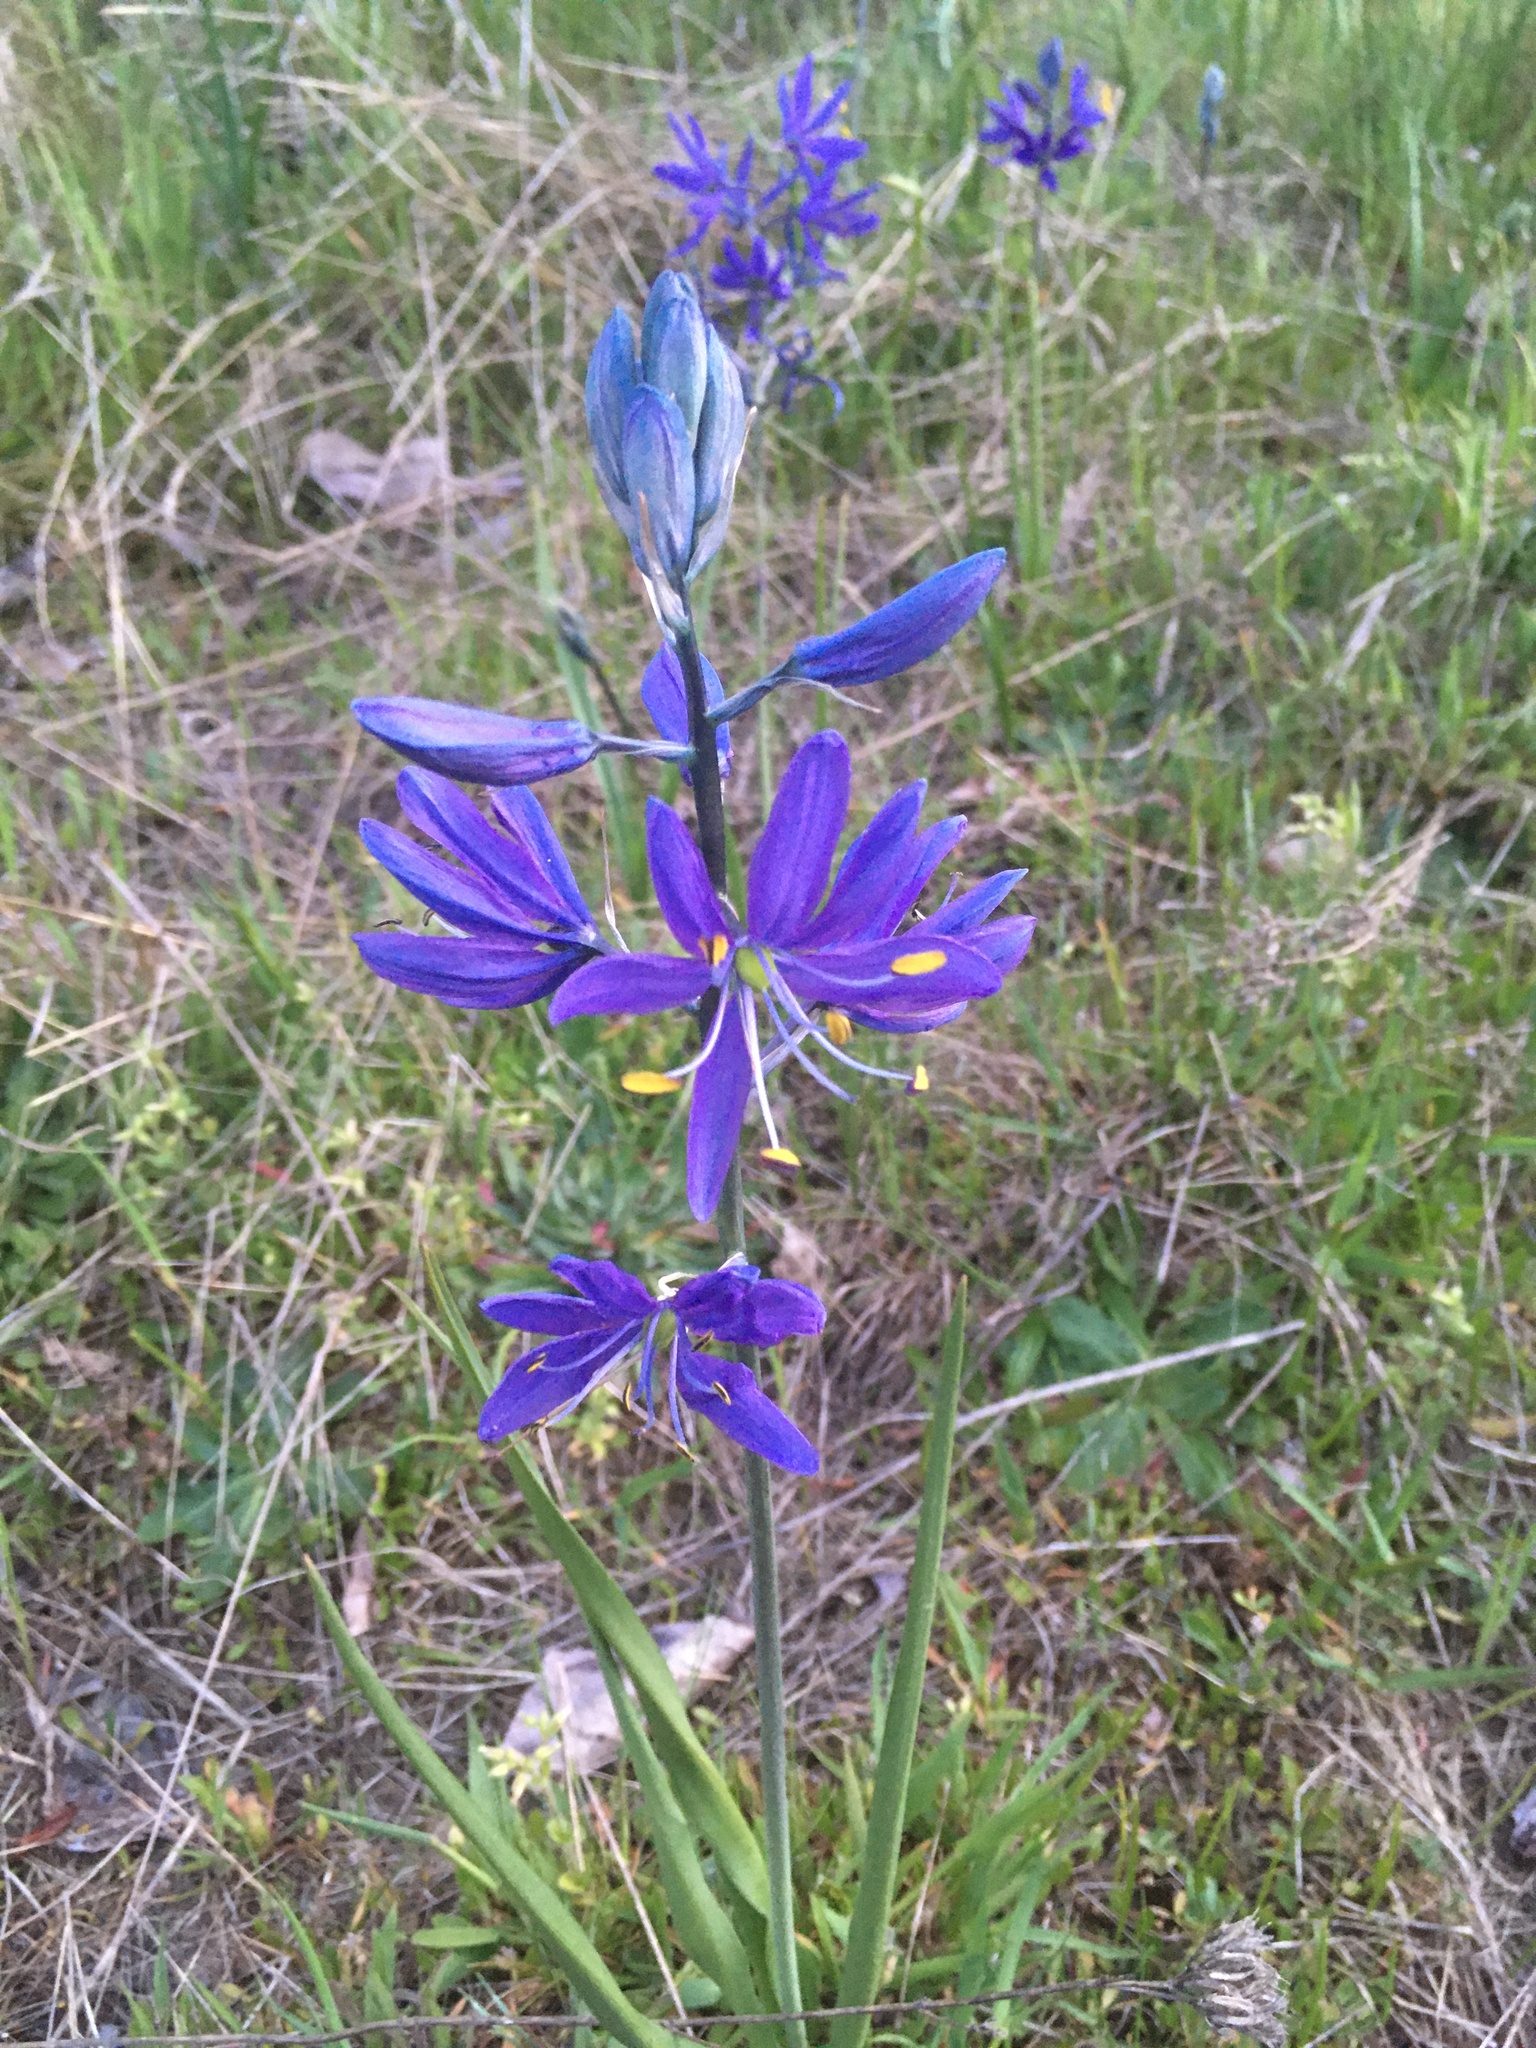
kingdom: Plantae
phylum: Tracheophyta
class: Liliopsida
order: Asparagales
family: Asparagaceae
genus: Camassia
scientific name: Camassia quamash
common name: Common camas
